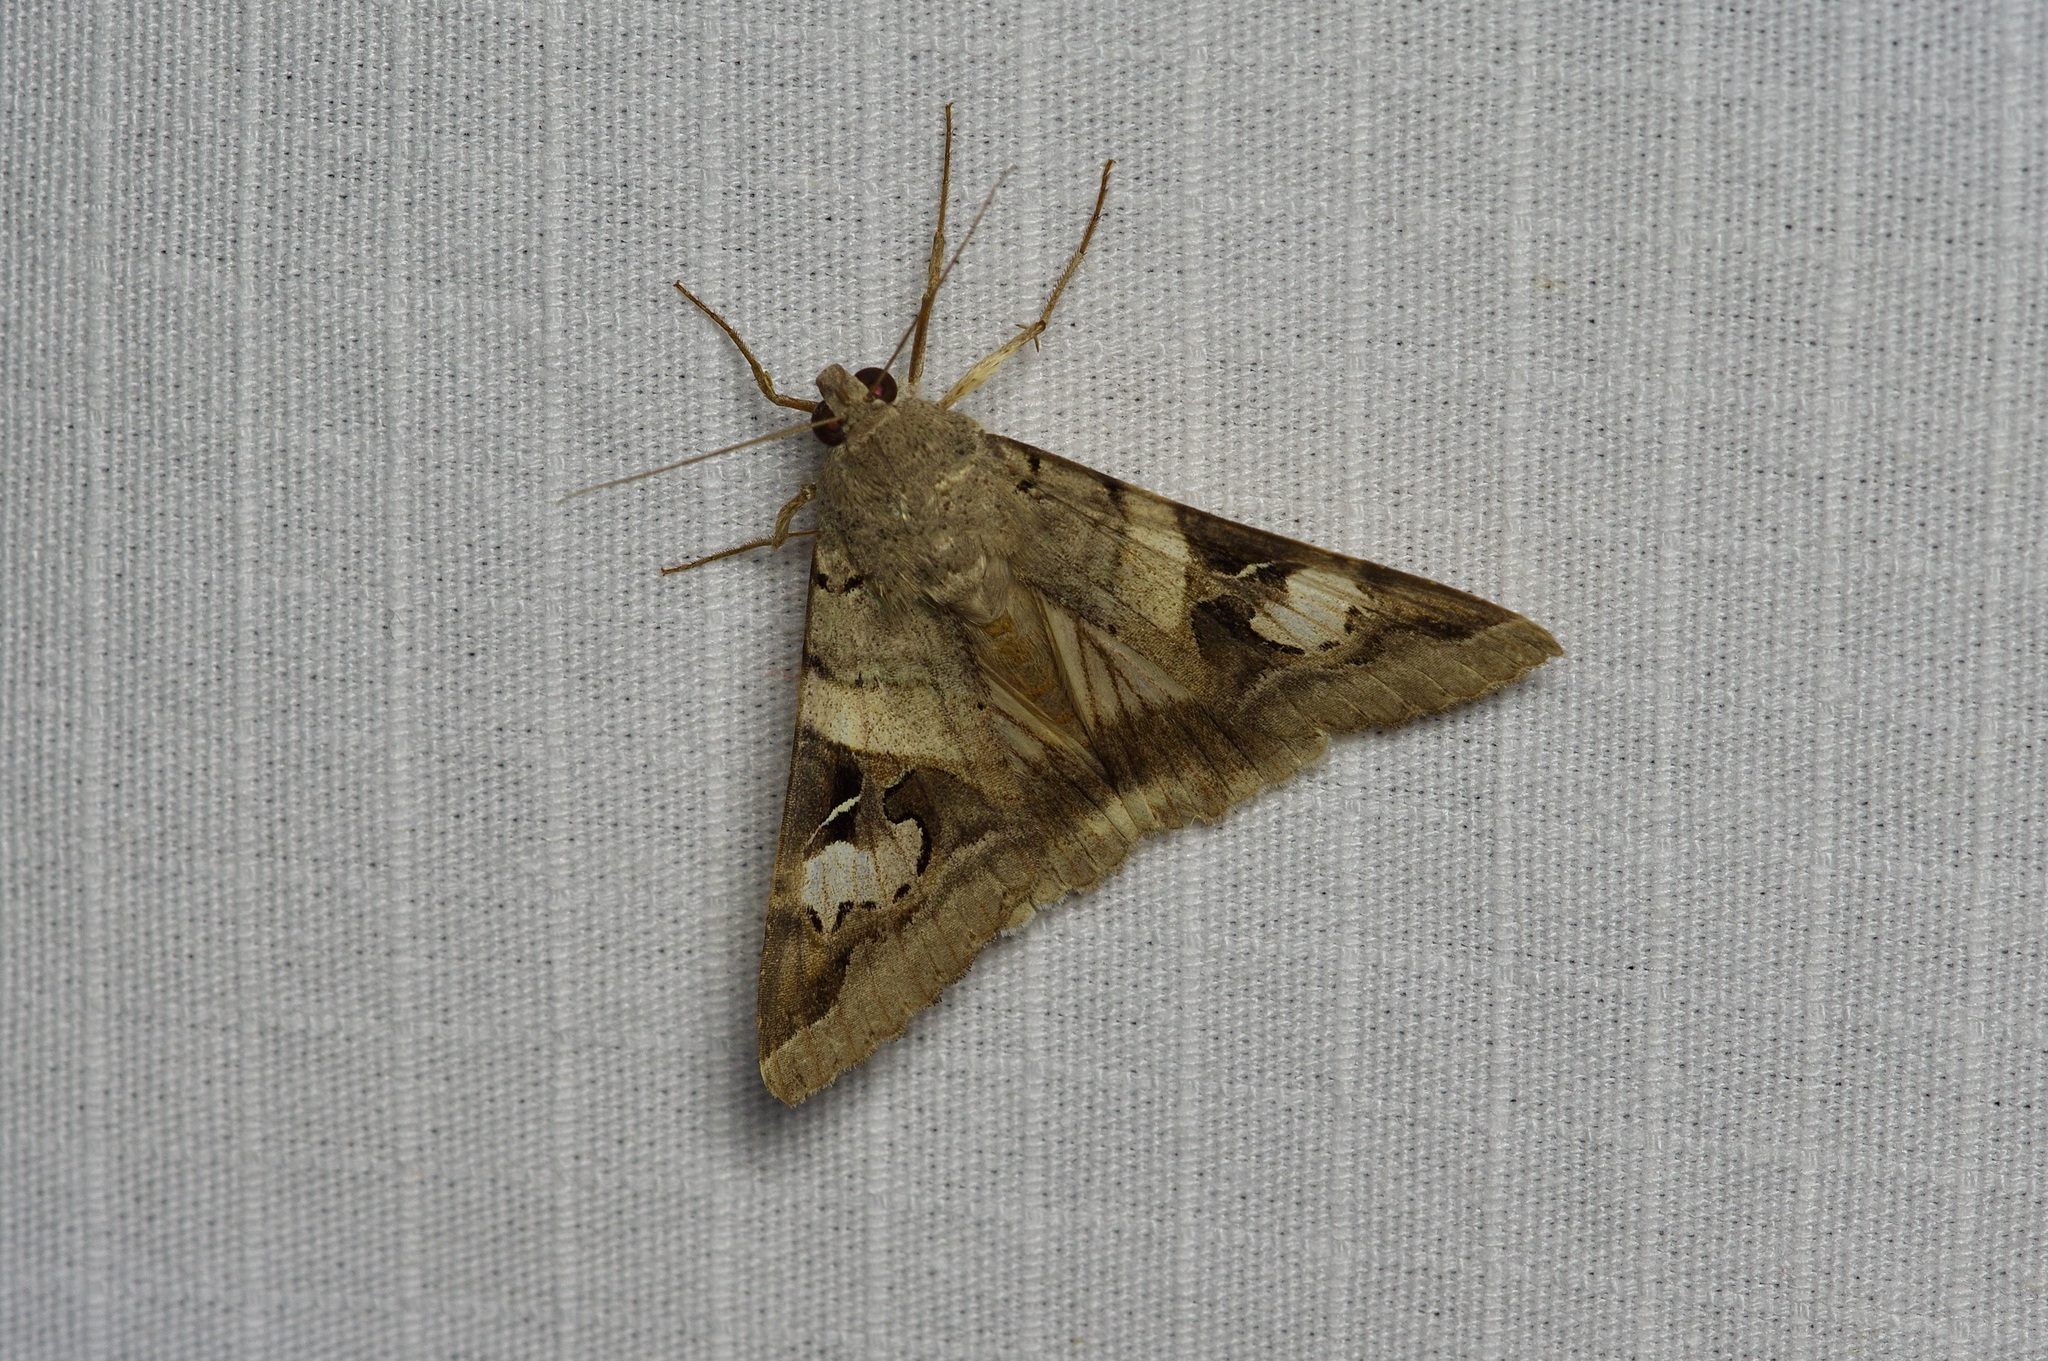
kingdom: Animalia
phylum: Arthropoda
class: Insecta
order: Lepidoptera
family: Erebidae
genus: Melipotis
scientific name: Melipotis indomita
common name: Moth
